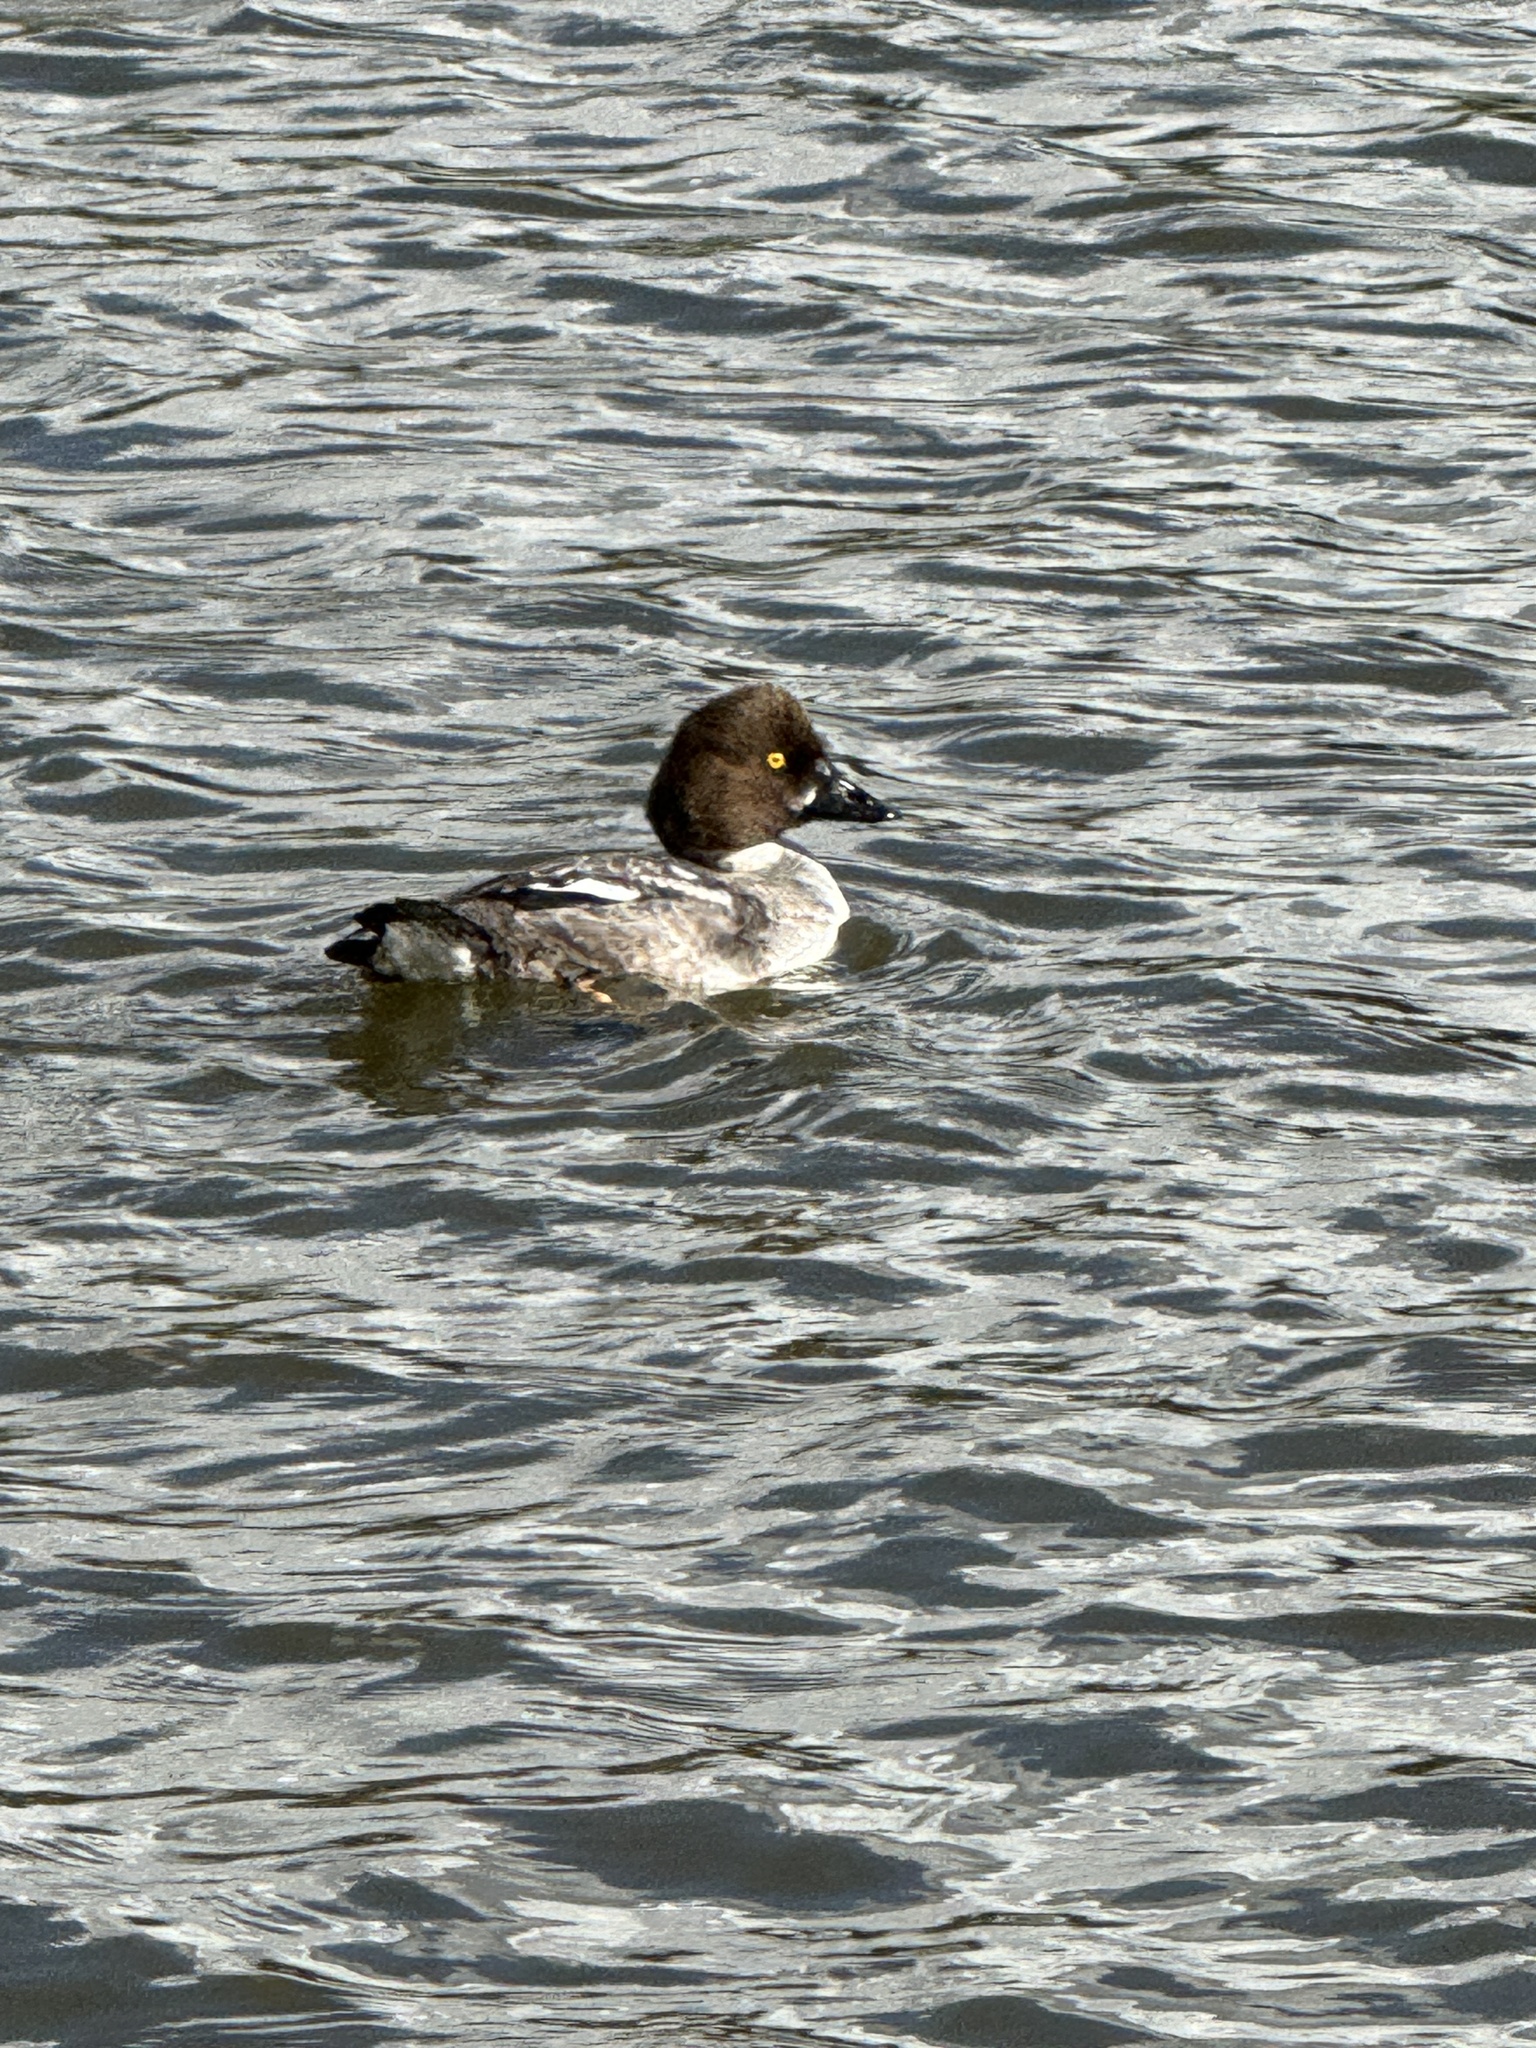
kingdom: Animalia
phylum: Chordata
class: Aves
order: Anseriformes
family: Anatidae
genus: Bucephala
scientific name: Bucephala clangula
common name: Common goldeneye
